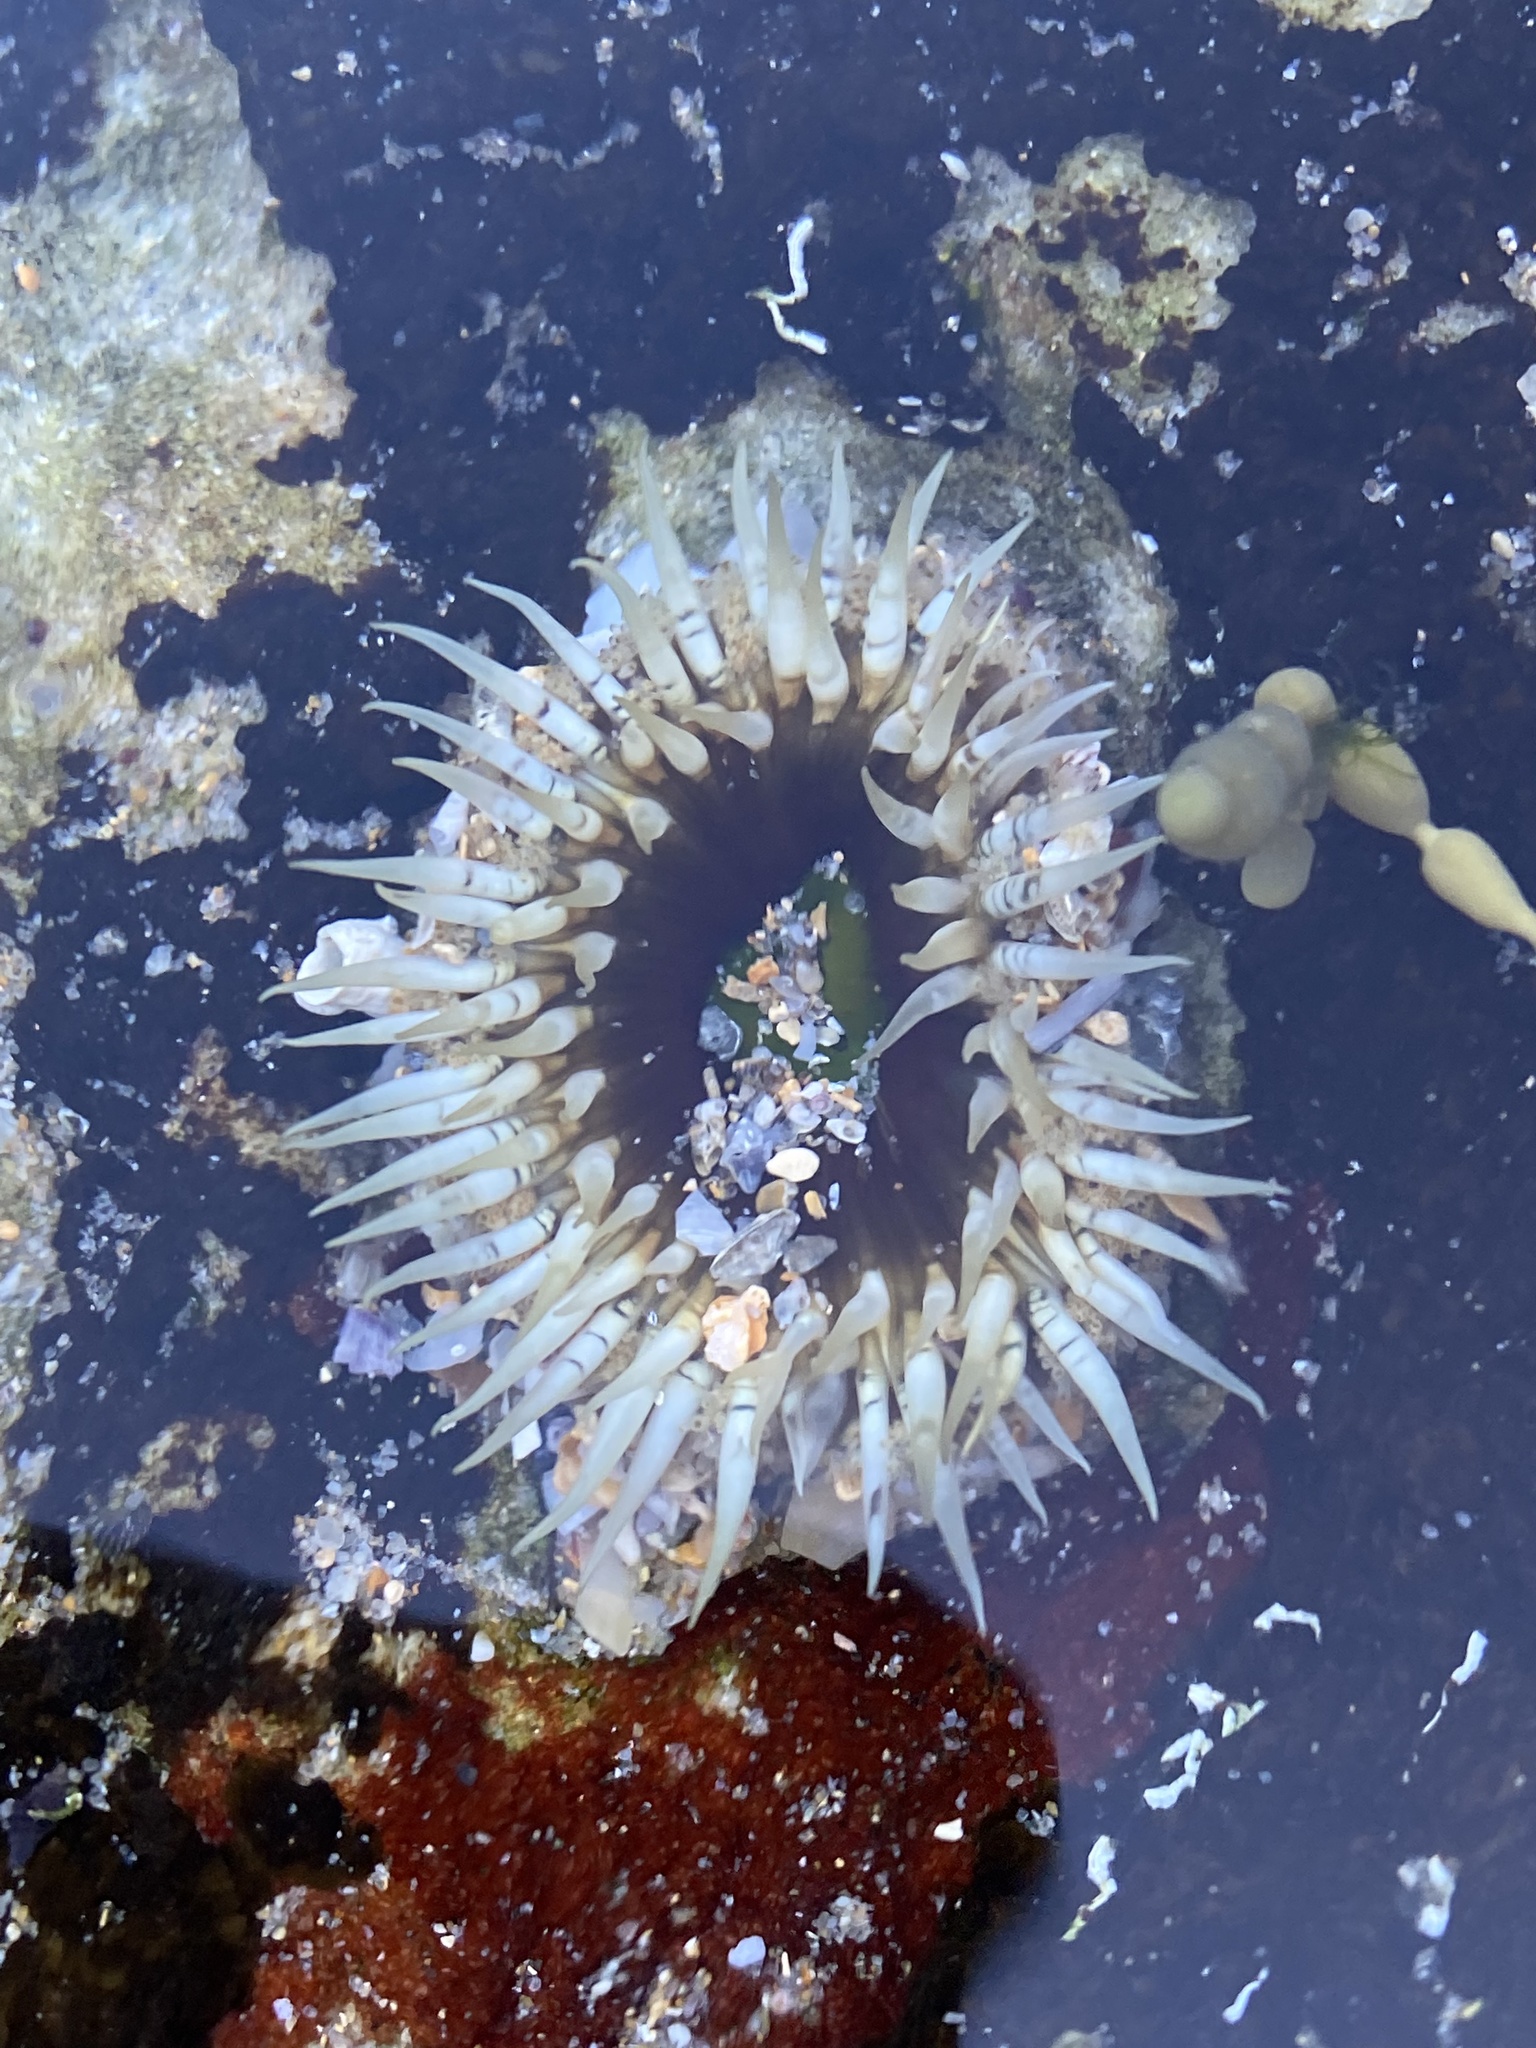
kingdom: Animalia
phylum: Cnidaria
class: Anthozoa
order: Actiniaria
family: Actiniidae
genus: Oulactis
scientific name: Oulactis muscosa
